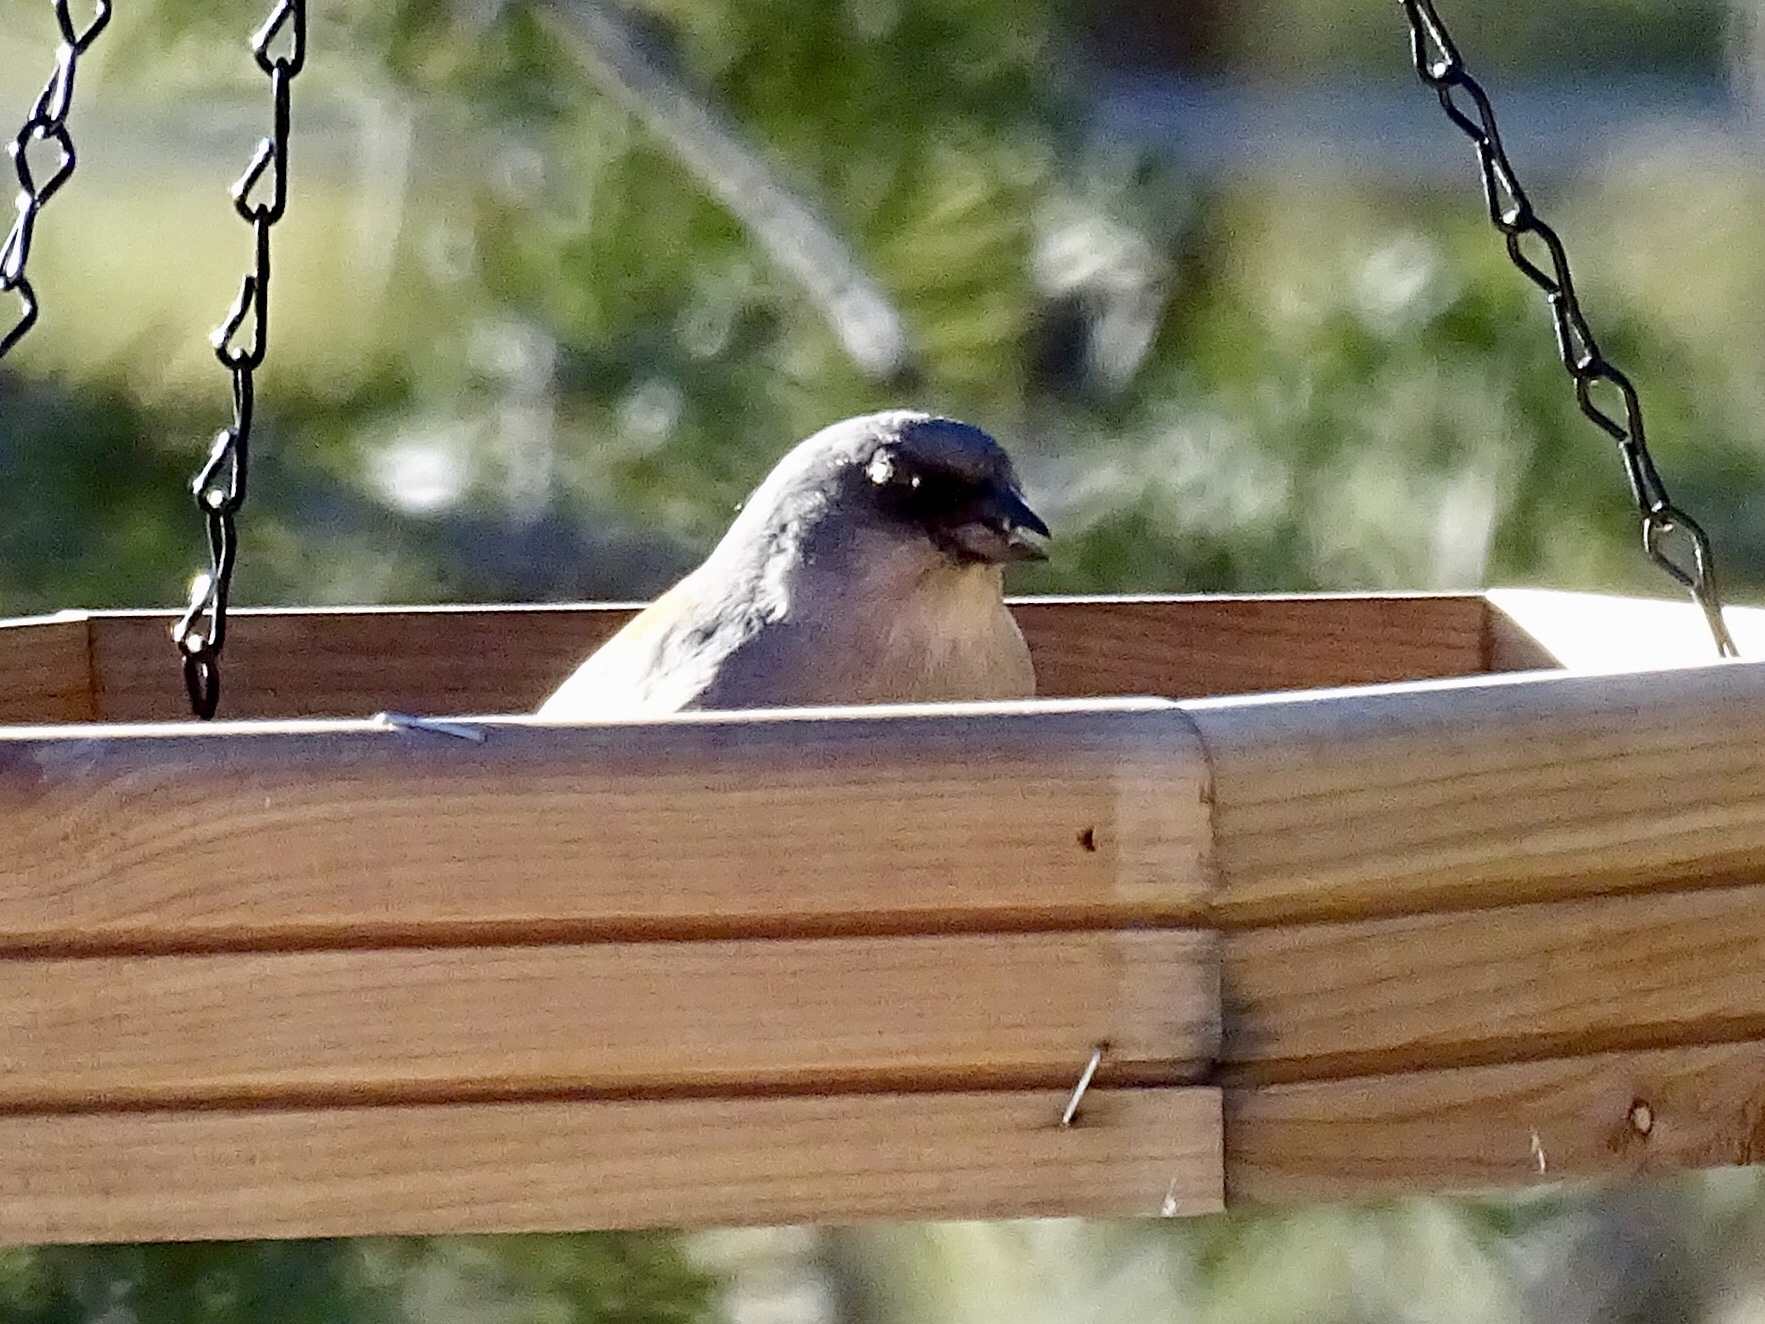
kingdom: Animalia
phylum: Chordata
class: Aves
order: Passeriformes
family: Passerellidae
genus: Junco
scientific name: Junco hyemalis
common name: Dark-eyed junco
